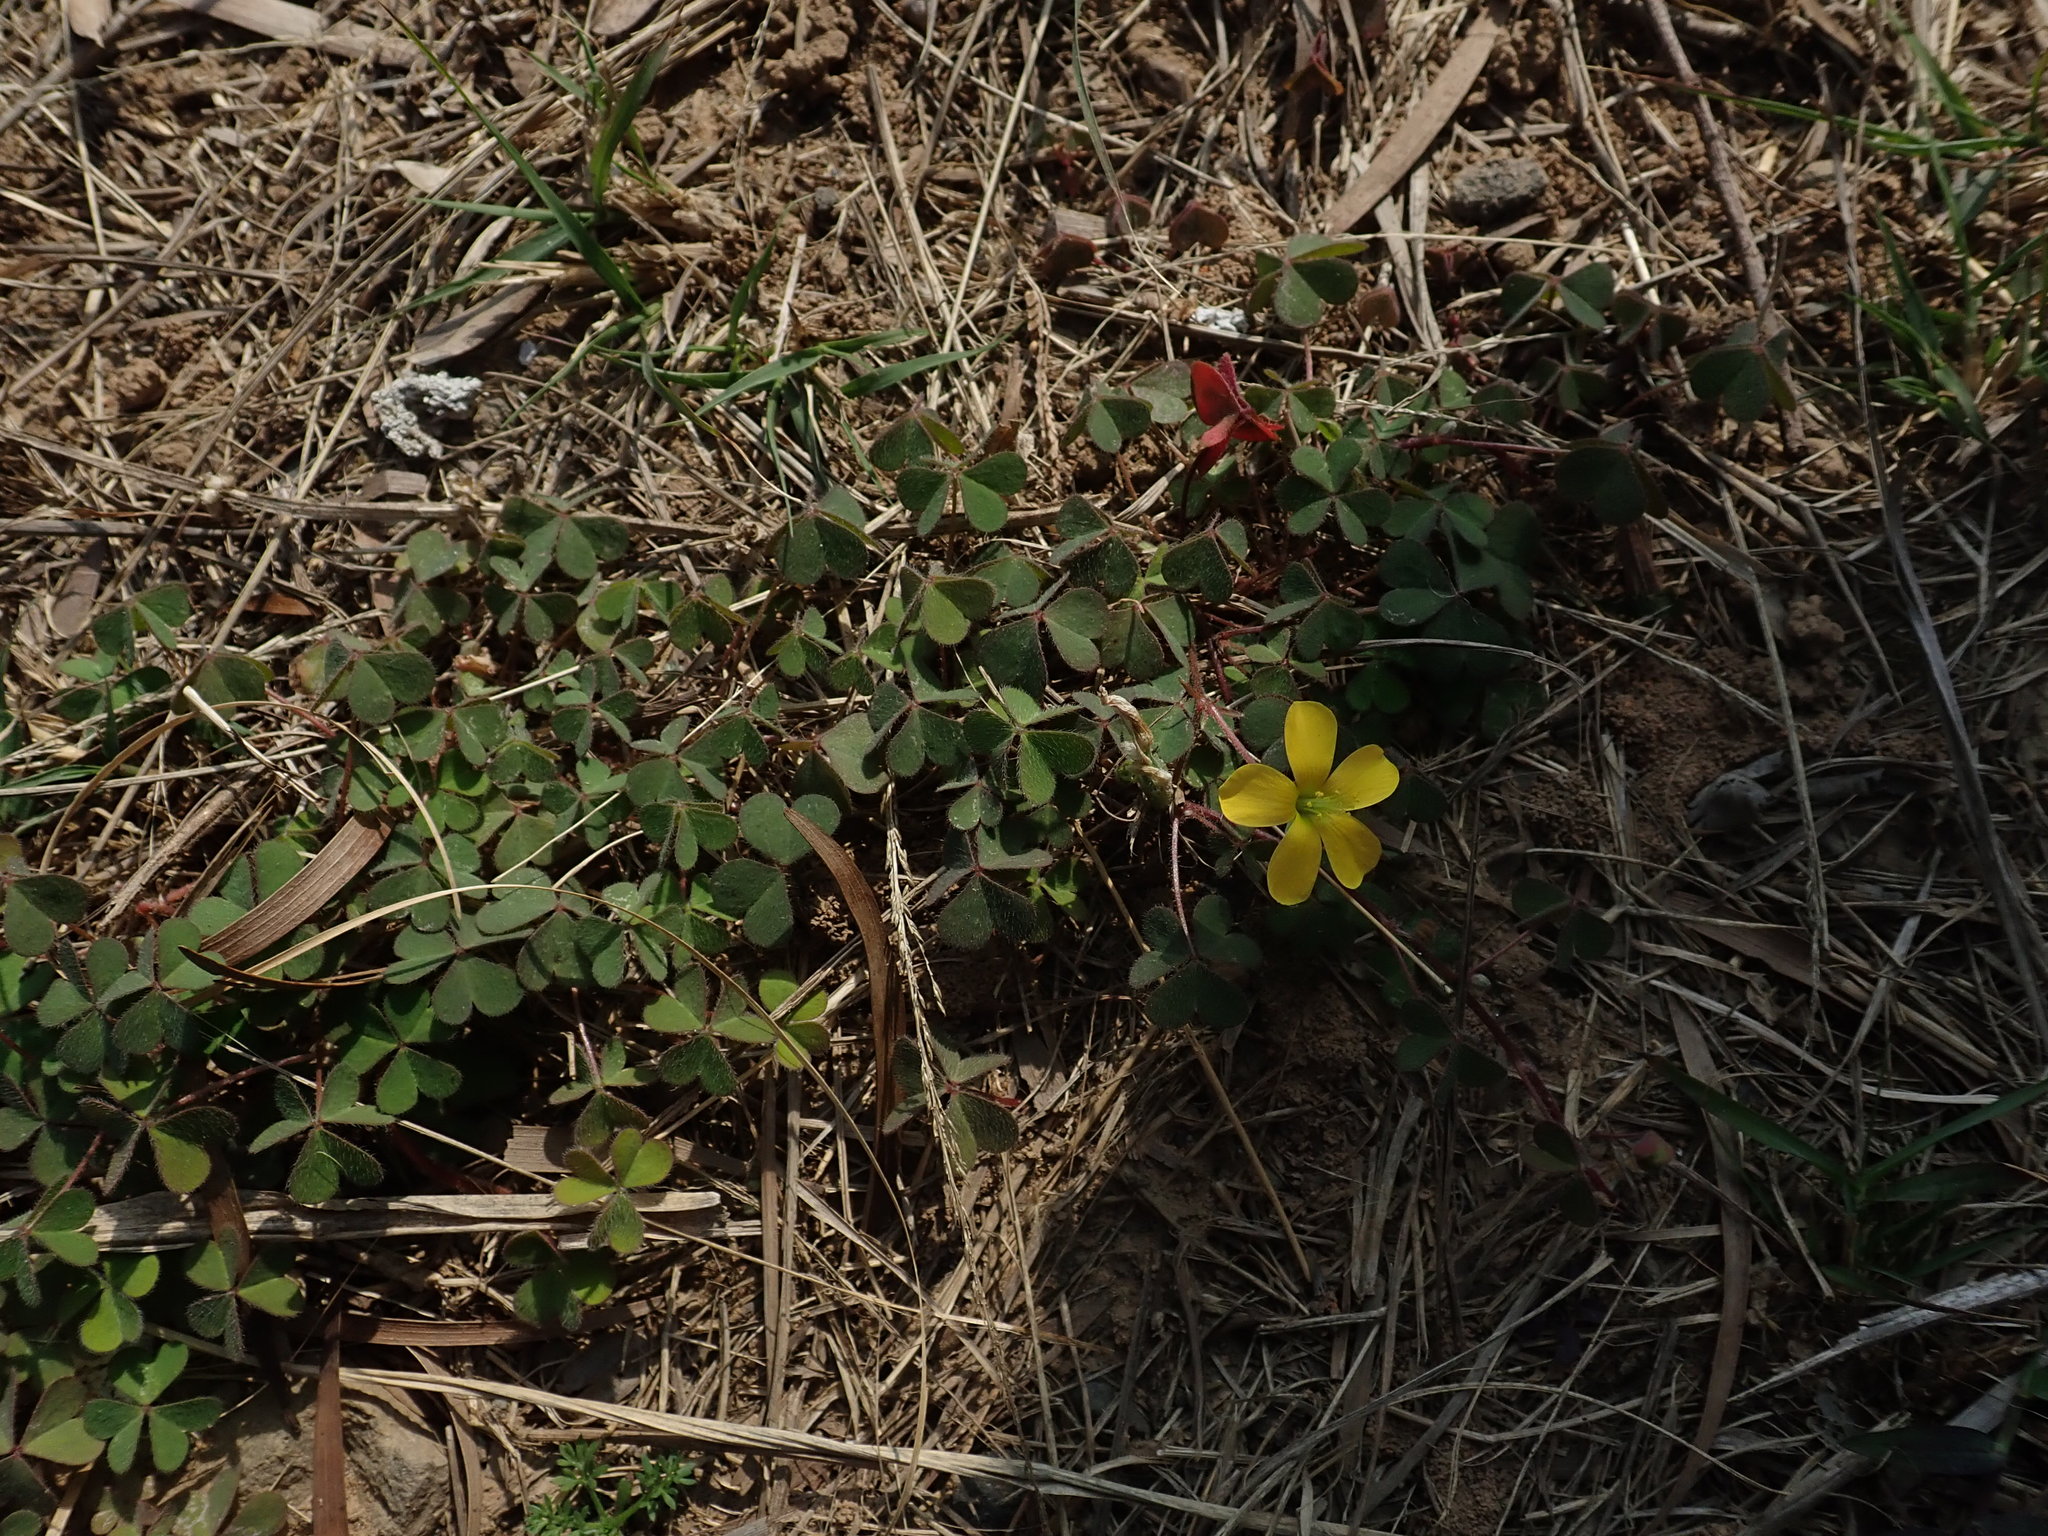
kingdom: Plantae
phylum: Tracheophyta
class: Magnoliopsida
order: Oxalidales
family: Oxalidaceae
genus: Oxalis
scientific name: Oxalis corniculata
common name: Procumbent yellow-sorrel
